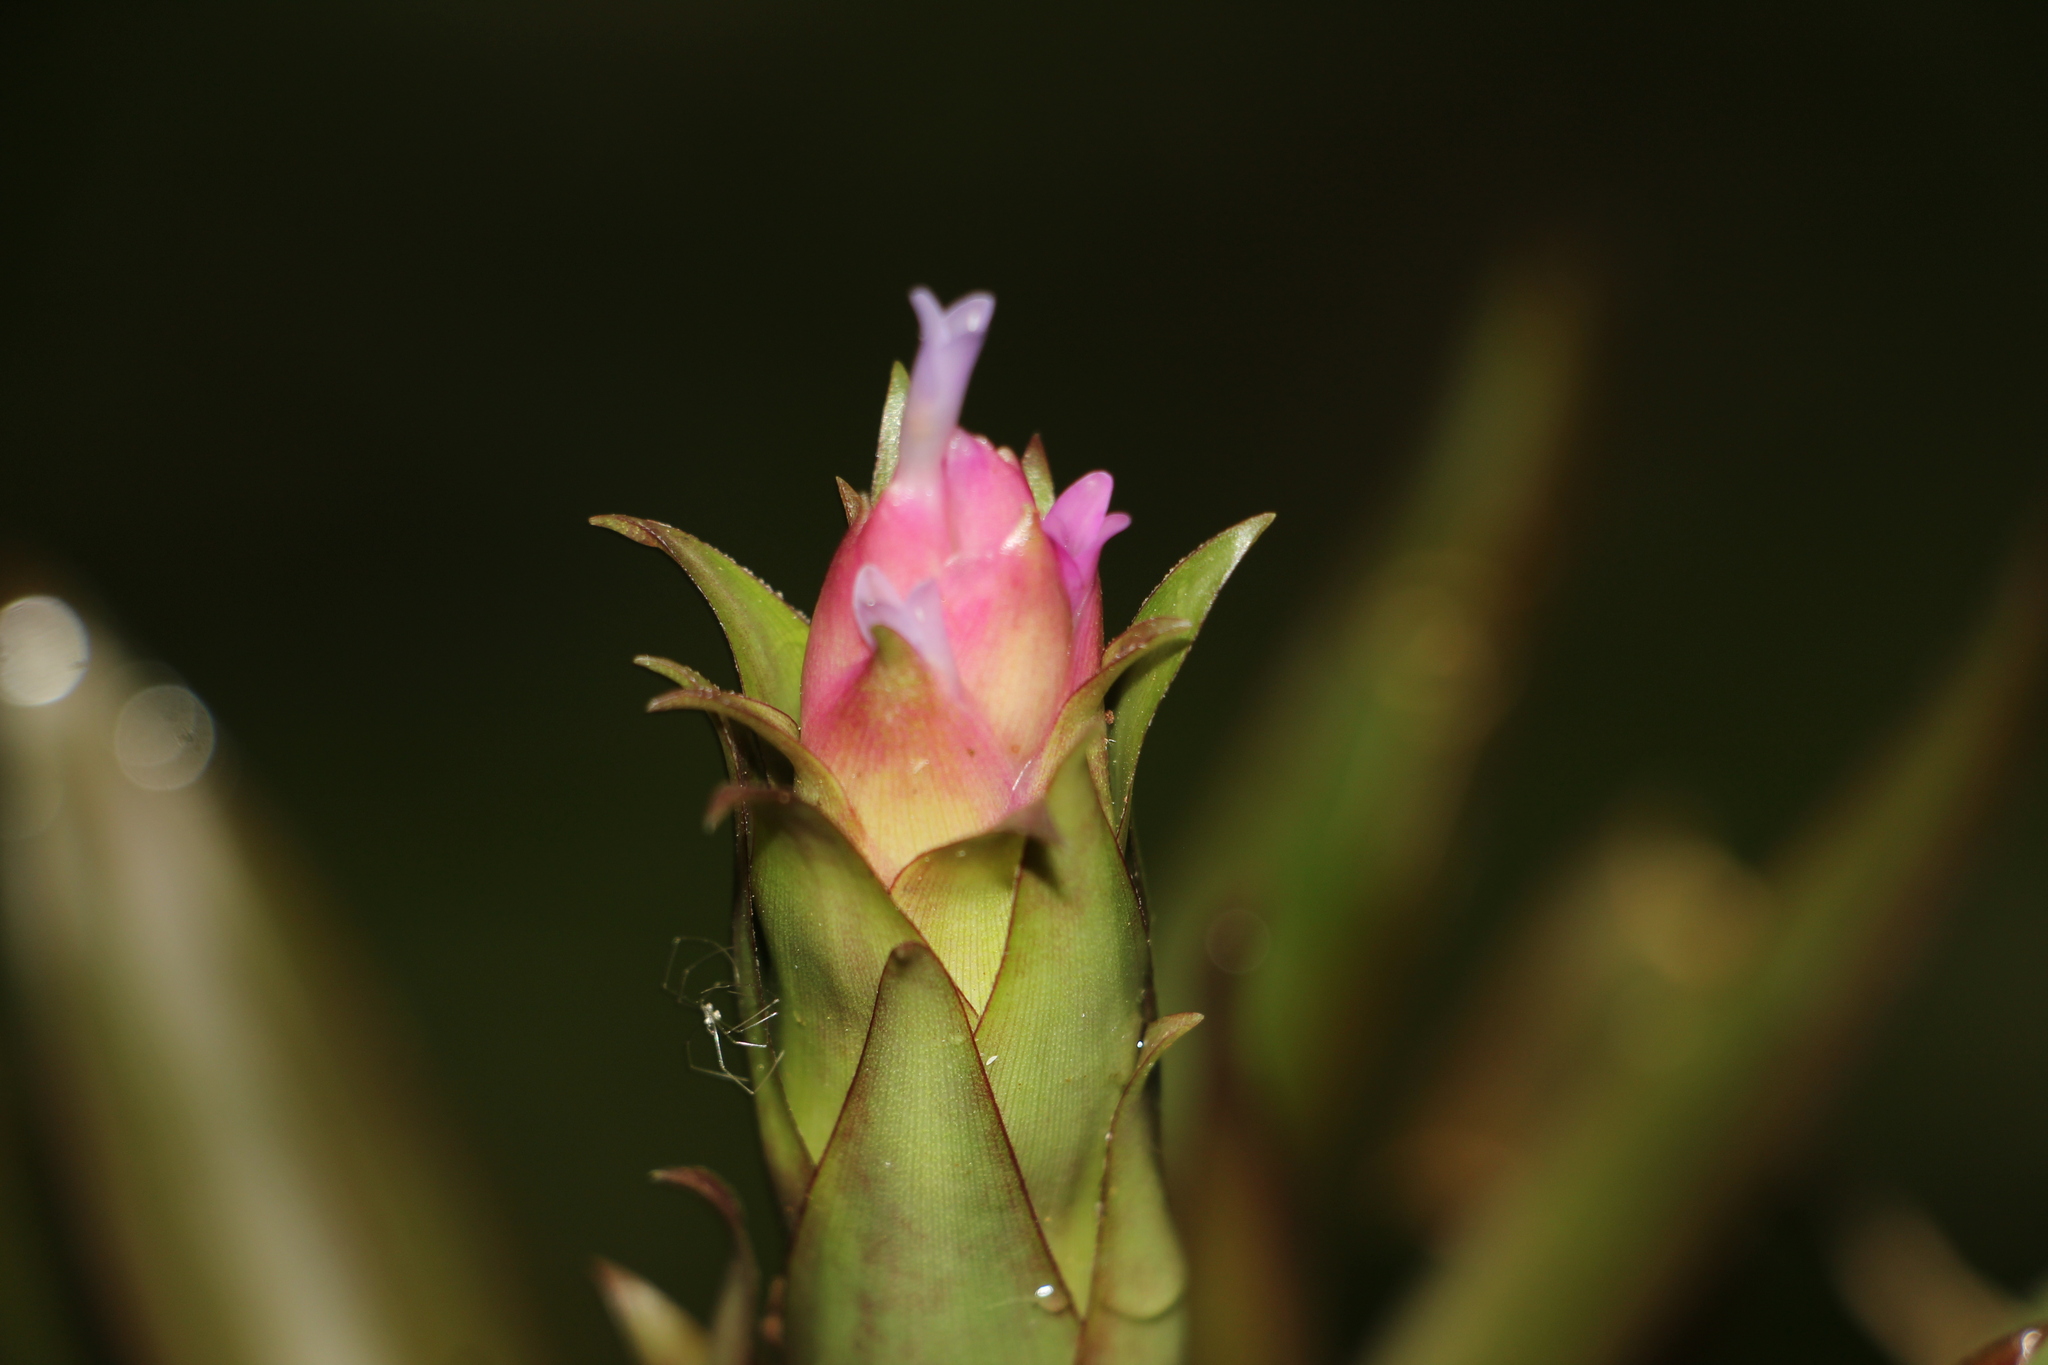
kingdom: Plantae
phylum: Tracheophyta
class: Liliopsida
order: Poales
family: Bromeliaceae
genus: Tillandsia
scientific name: Tillandsia biflora
